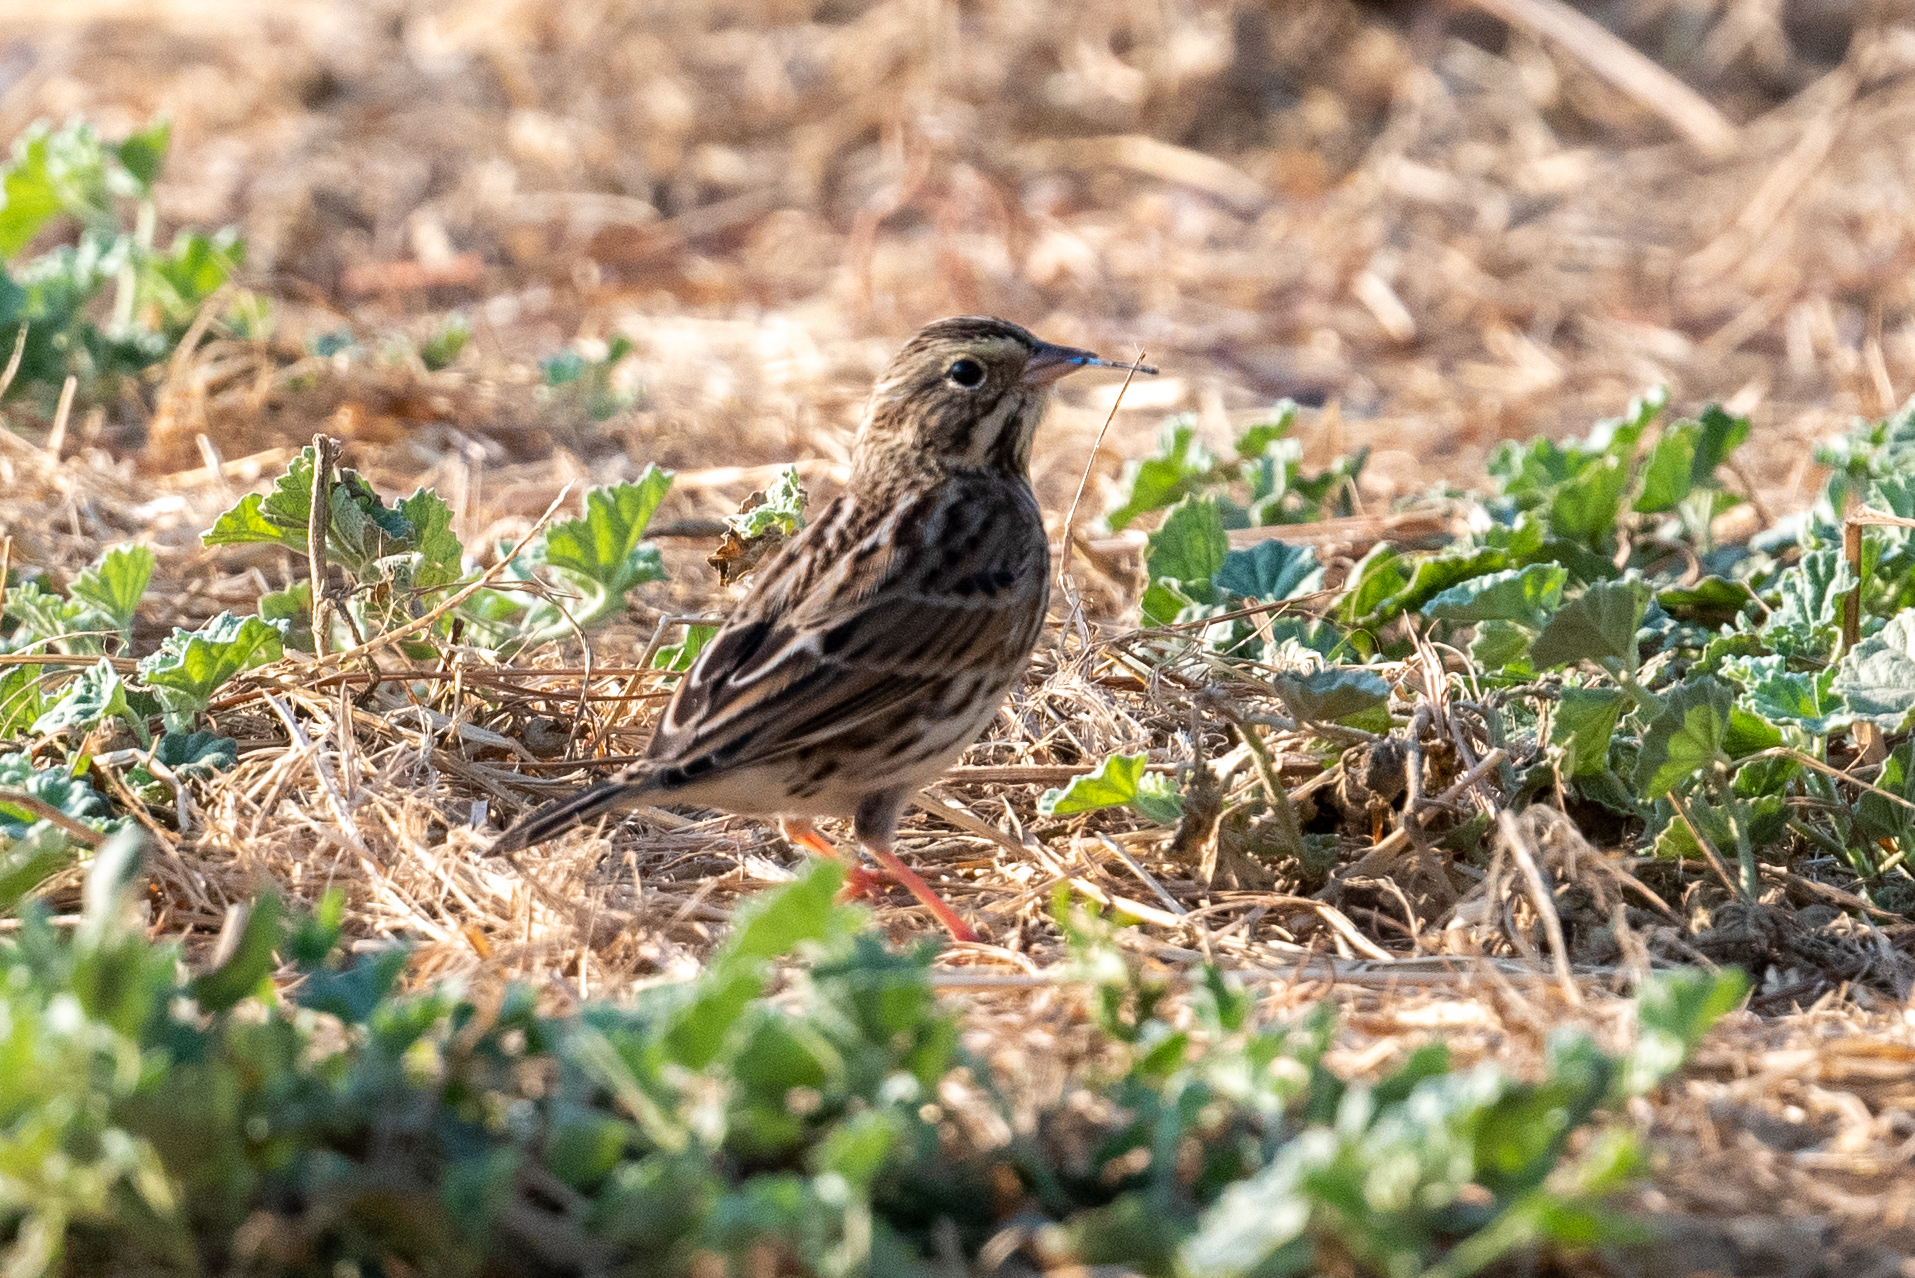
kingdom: Animalia
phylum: Chordata
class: Aves
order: Passeriformes
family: Passerellidae
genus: Passerculus
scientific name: Passerculus sandwichensis
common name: Savannah sparrow
